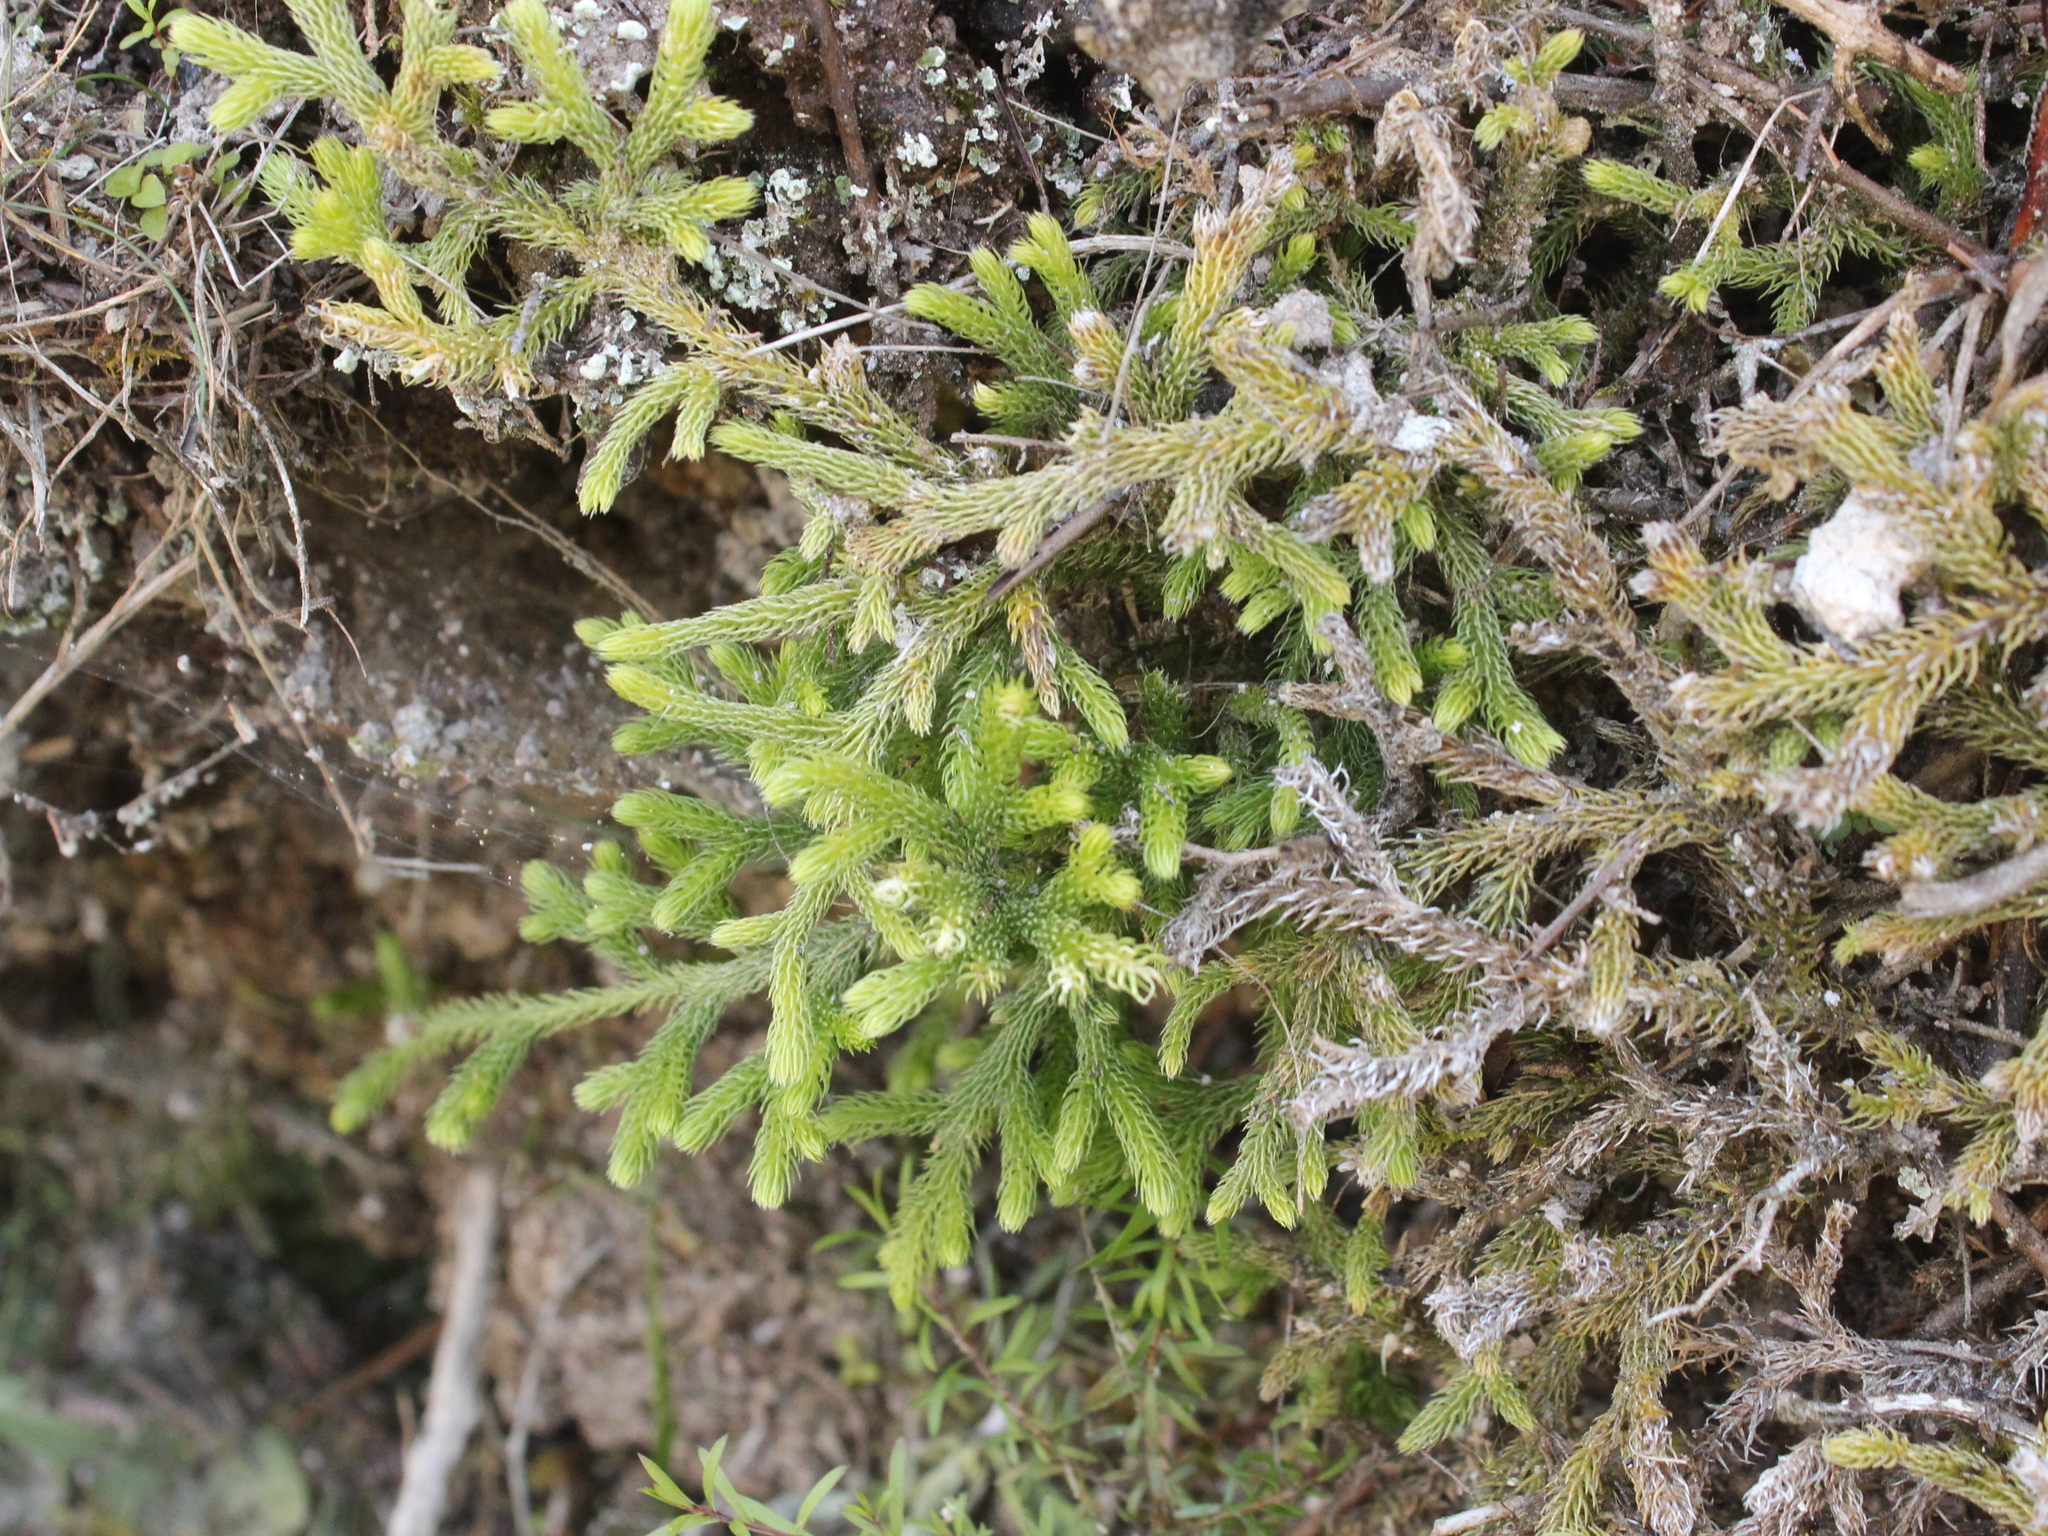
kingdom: Plantae
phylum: Tracheophyta
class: Lycopodiopsida
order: Lycopodiales
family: Lycopodiaceae
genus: Palhinhaea
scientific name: Palhinhaea cernua
